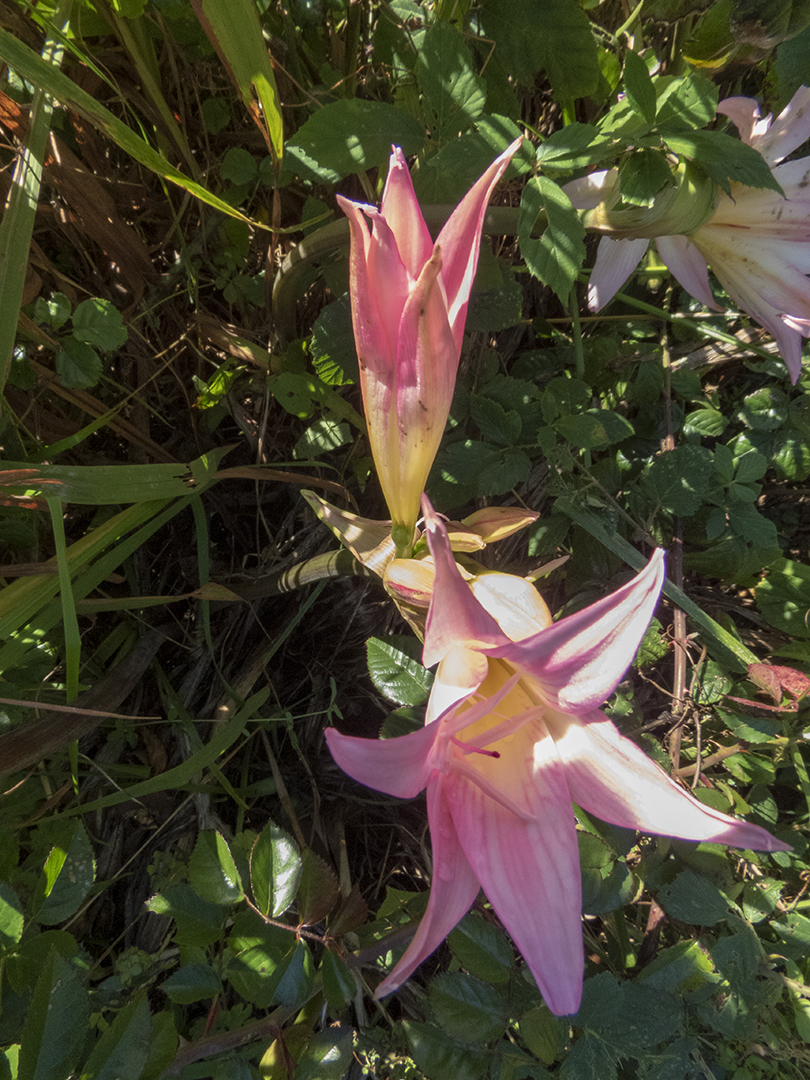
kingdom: Plantae
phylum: Tracheophyta
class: Liliopsida
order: Asparagales
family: Amaryllidaceae
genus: Amaryllis
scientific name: Amaryllis belladonna
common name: Jersey lily
